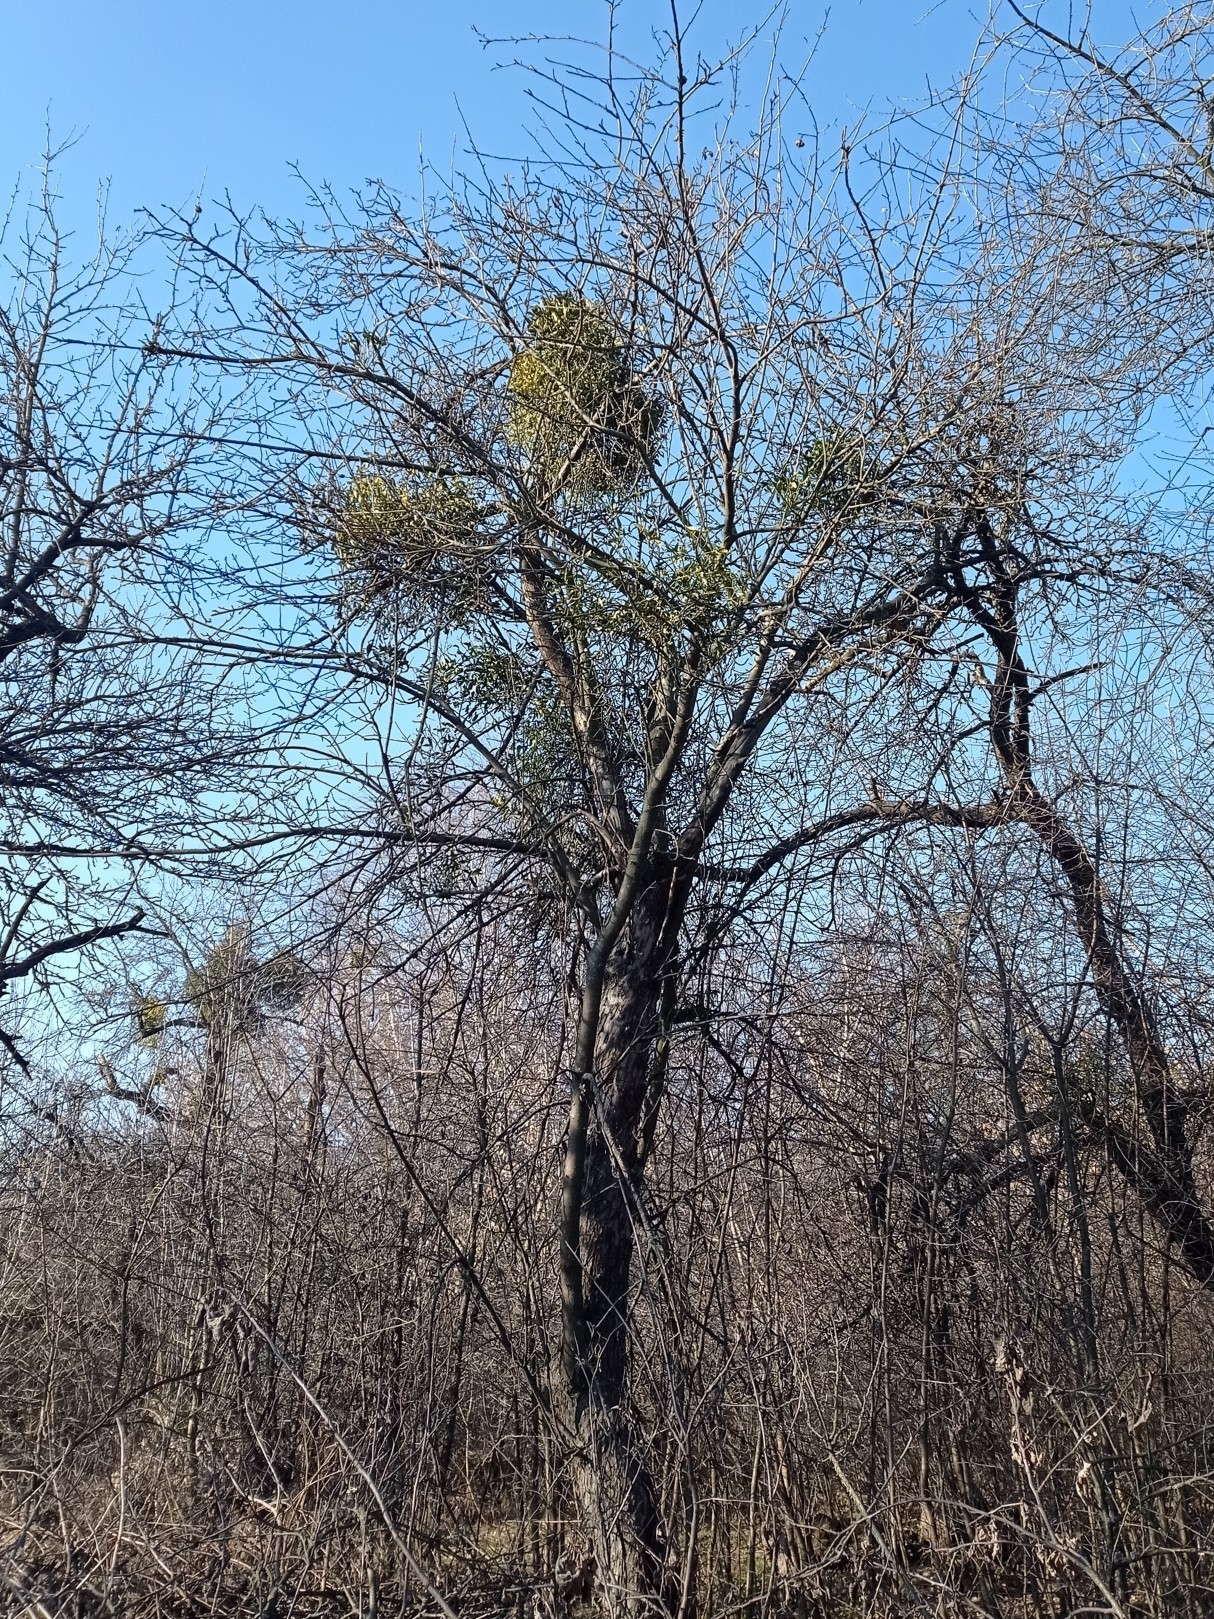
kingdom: Plantae
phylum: Tracheophyta
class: Magnoliopsida
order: Santalales
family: Viscaceae
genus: Viscum
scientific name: Viscum album
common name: Mistletoe
